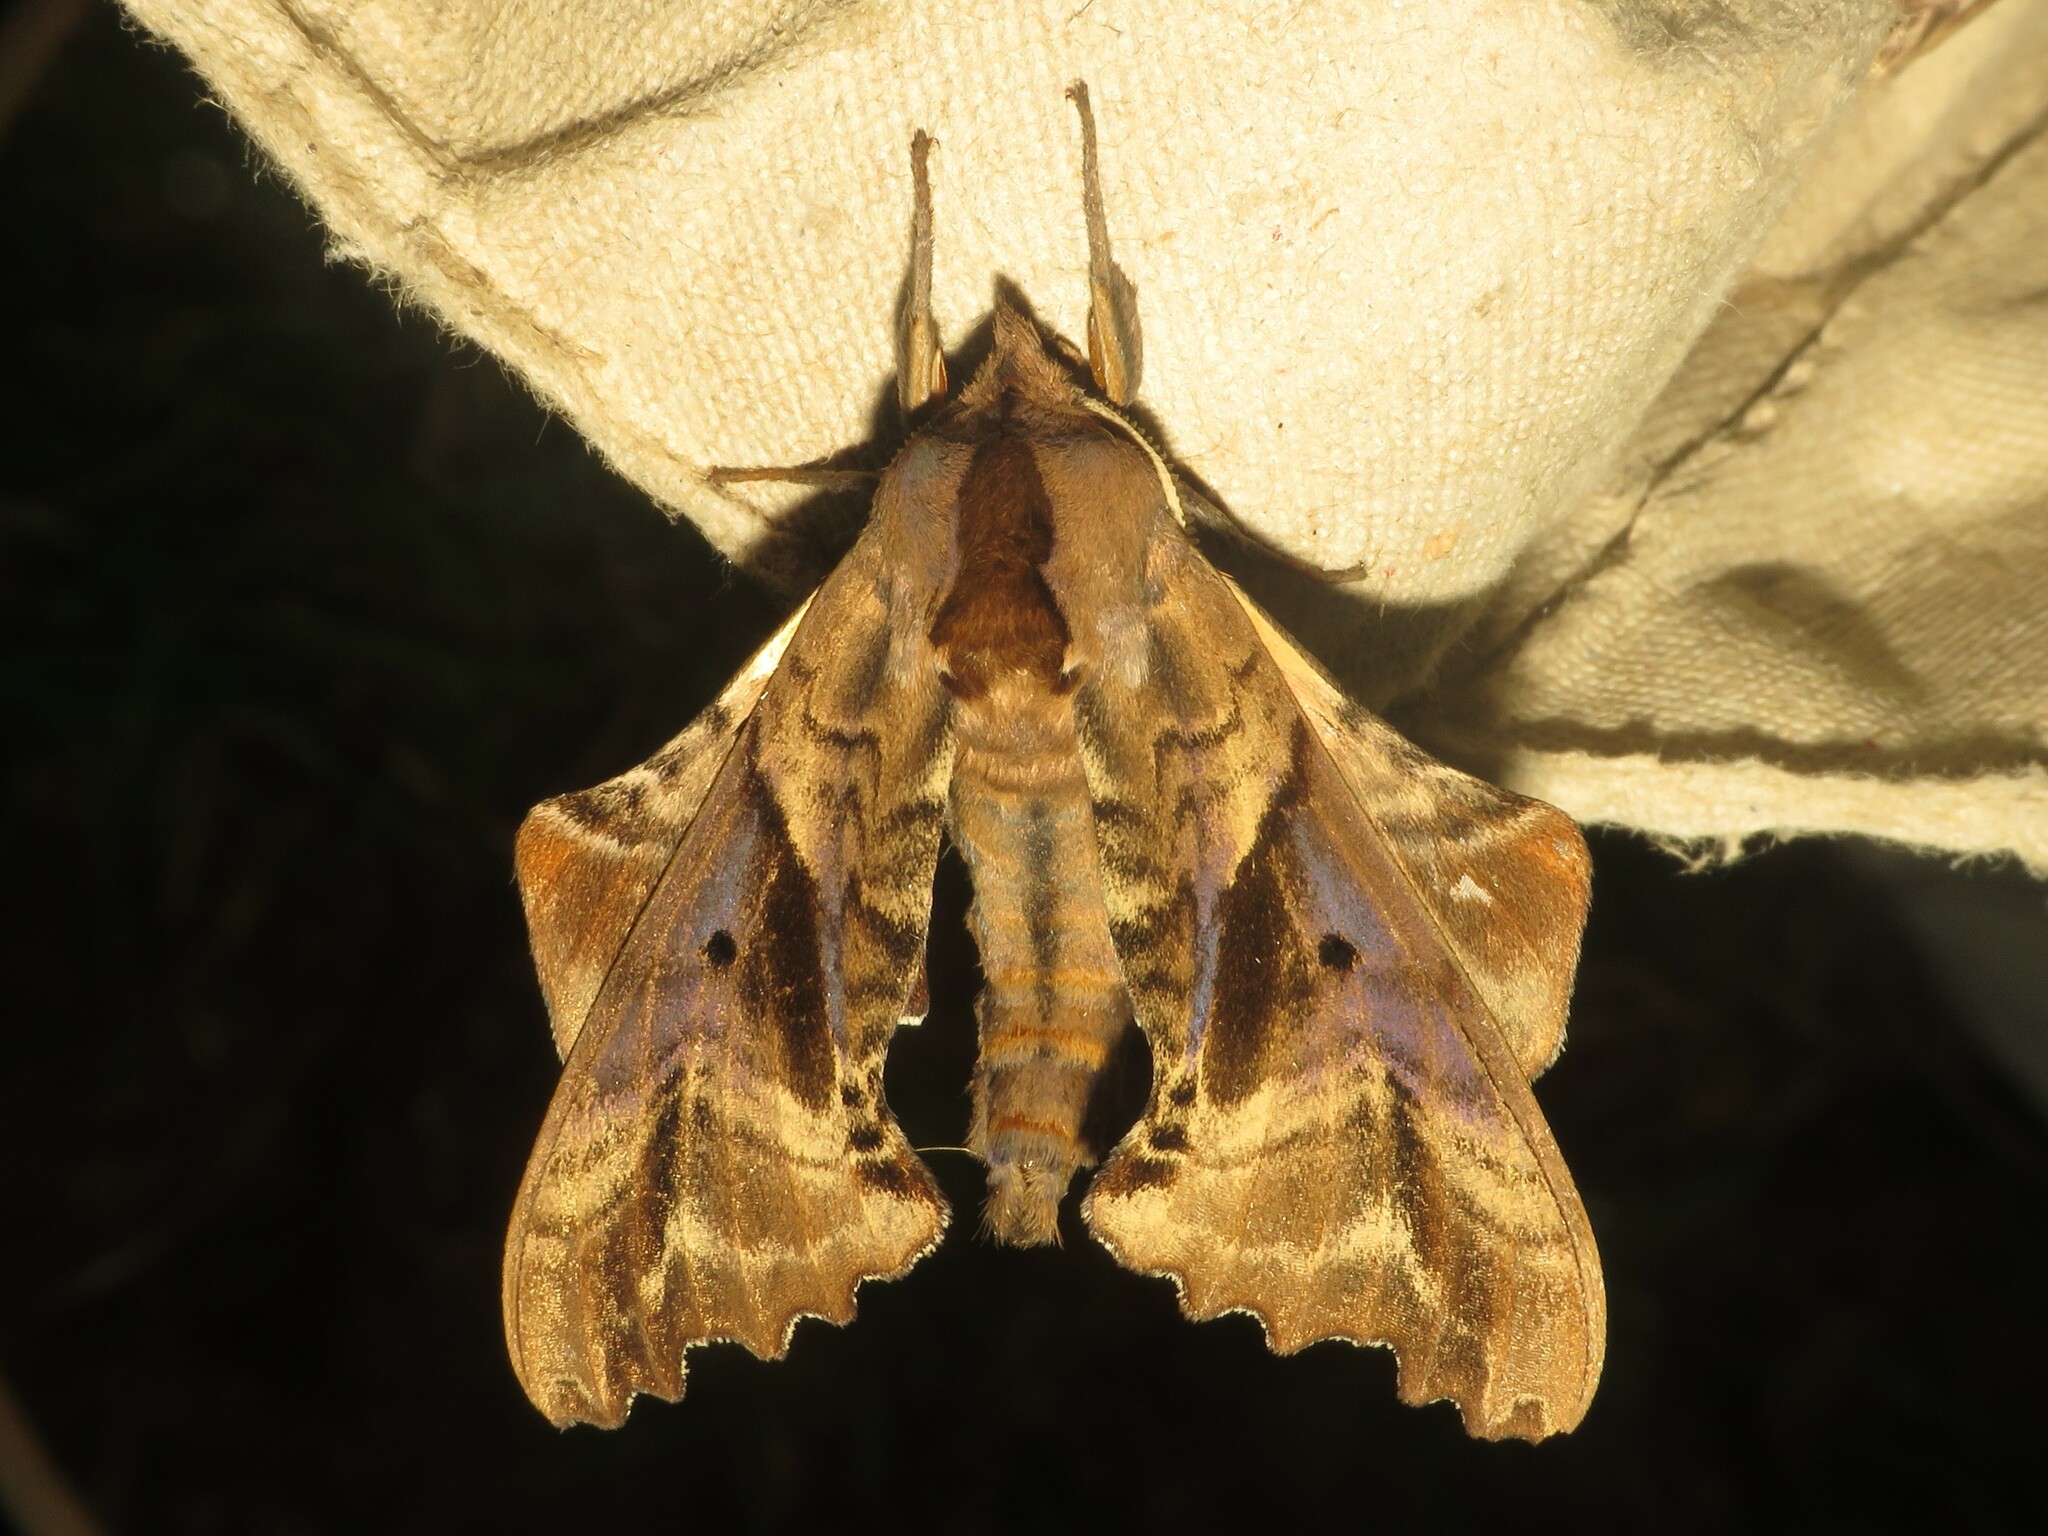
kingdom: Animalia
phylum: Arthropoda
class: Insecta
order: Lepidoptera
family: Sphingidae
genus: Paonias
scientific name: Paonias excaecata
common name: Blind-eyed sphinx
